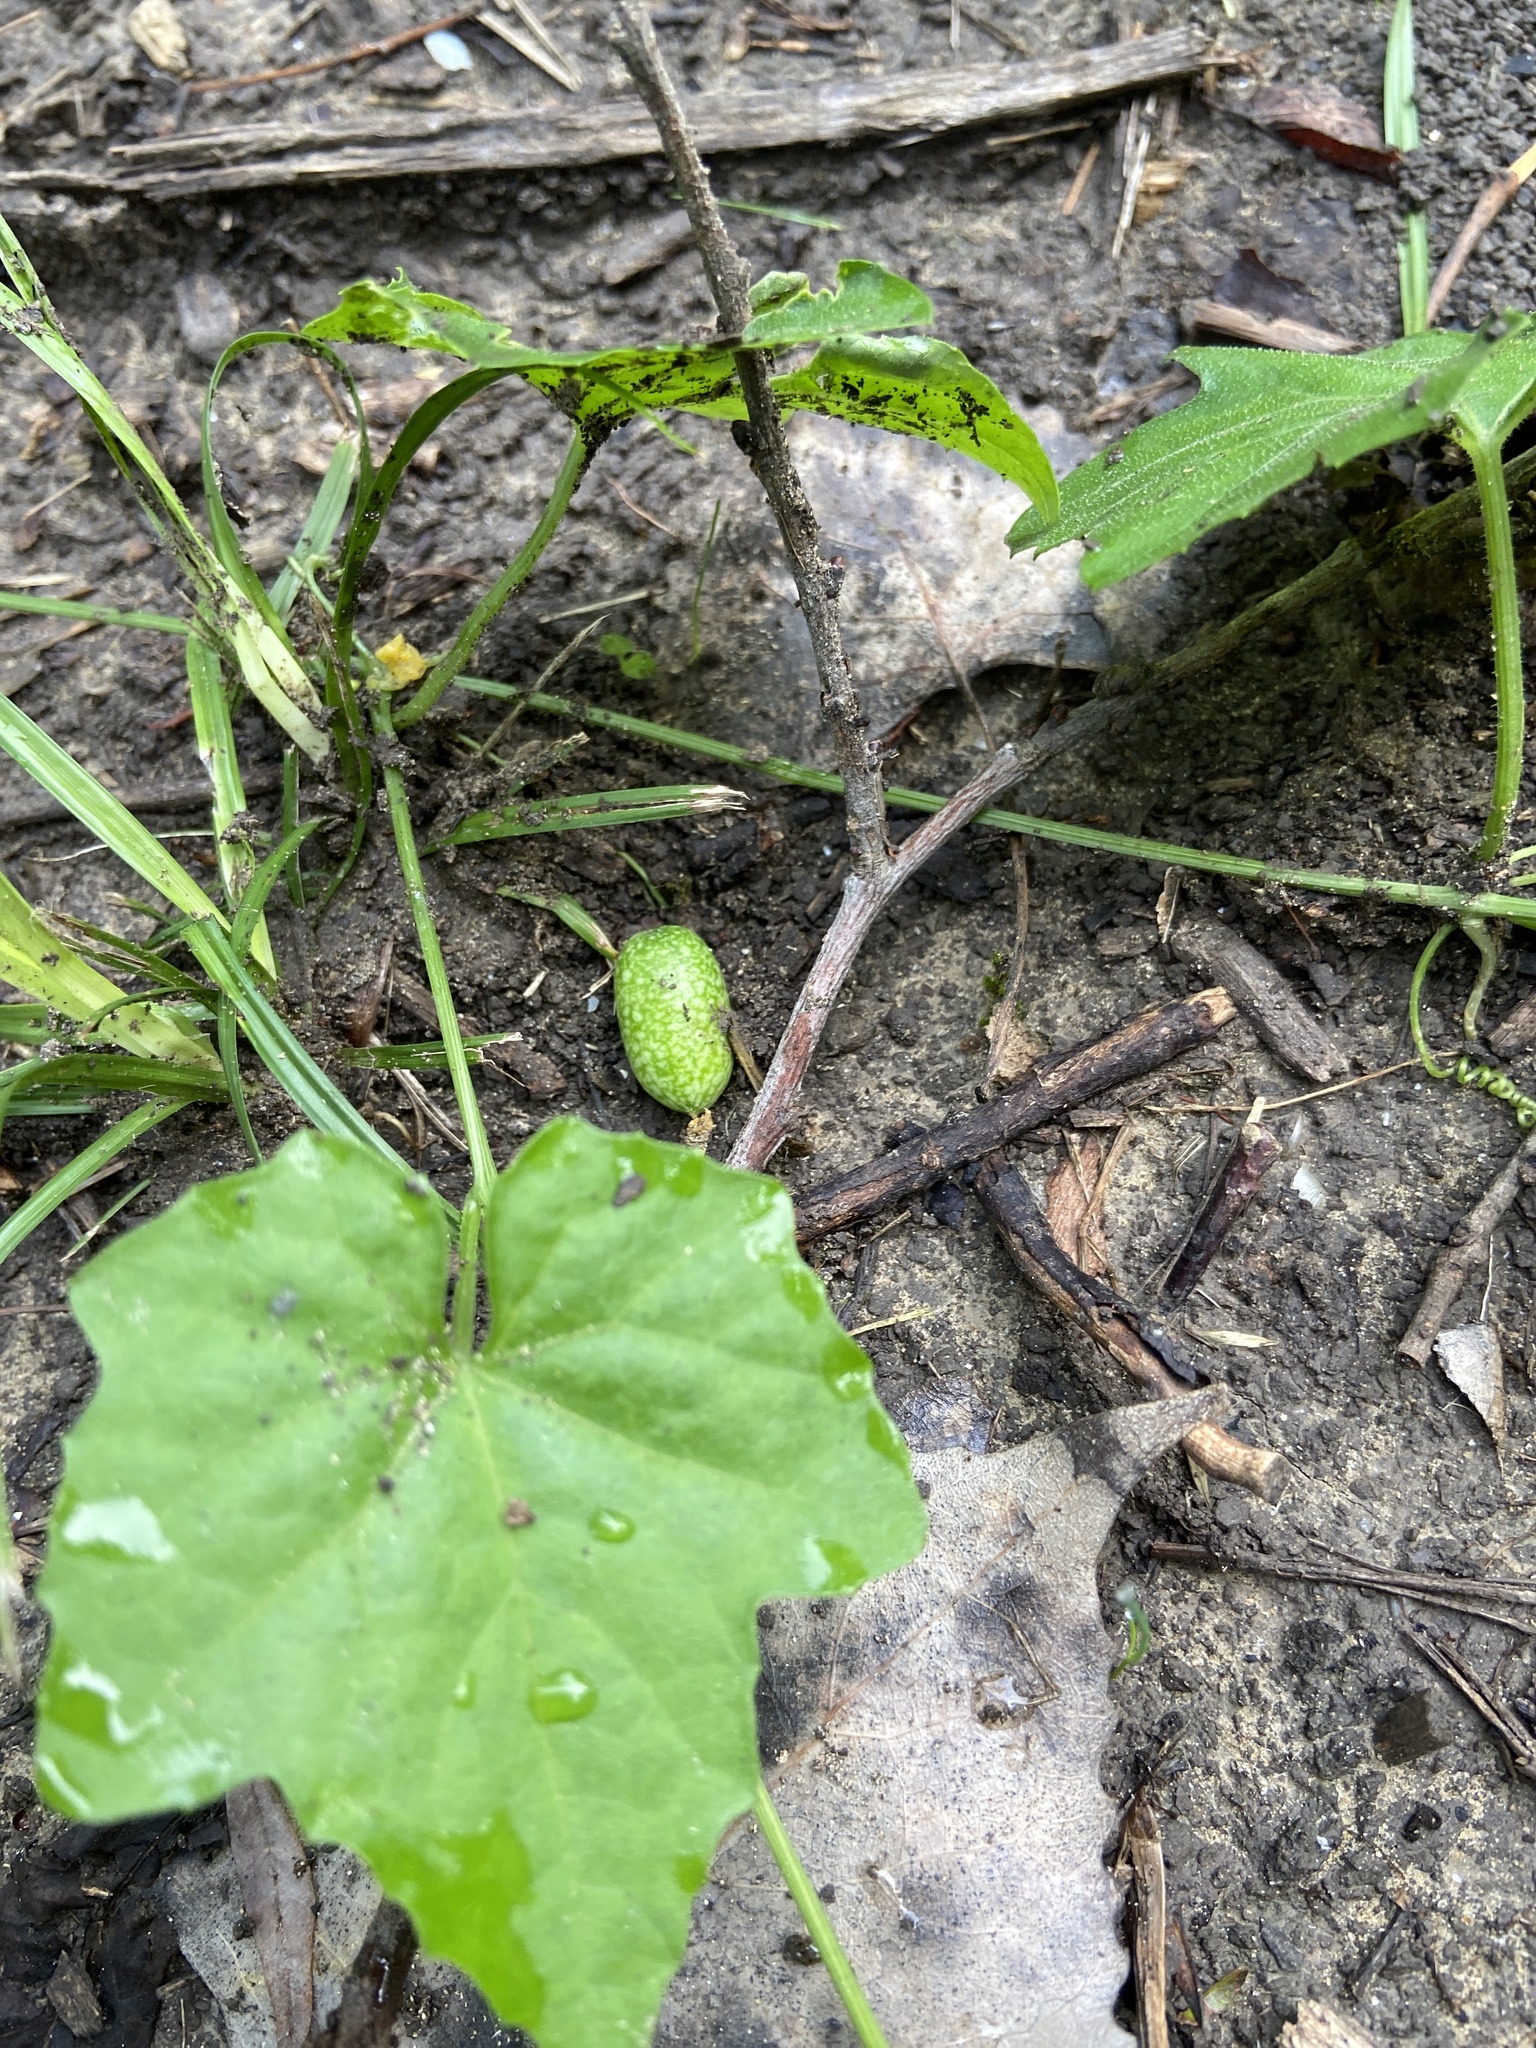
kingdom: Plantae
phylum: Tracheophyta
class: Magnoliopsida
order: Cucurbitales
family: Cucurbitaceae
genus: Melothria
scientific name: Melothria pendula
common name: Creeping-cucumber
